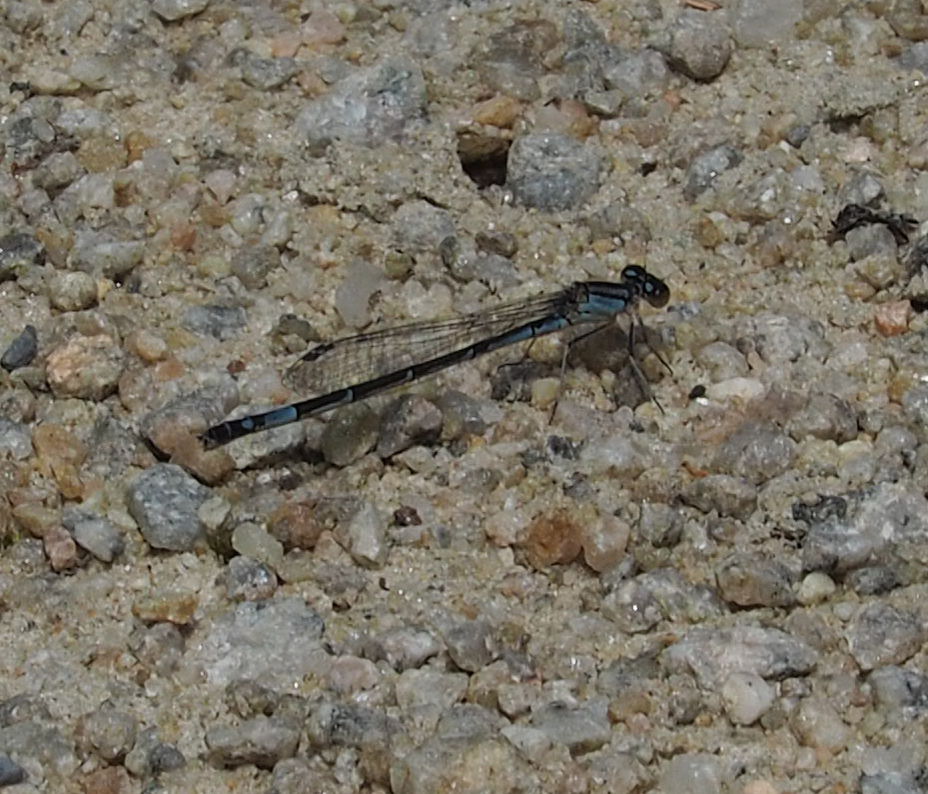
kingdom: Animalia
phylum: Arthropoda
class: Insecta
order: Odonata
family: Coenagrionidae
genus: Enallagma
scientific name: Enallagma aspersum
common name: Azure bluet
